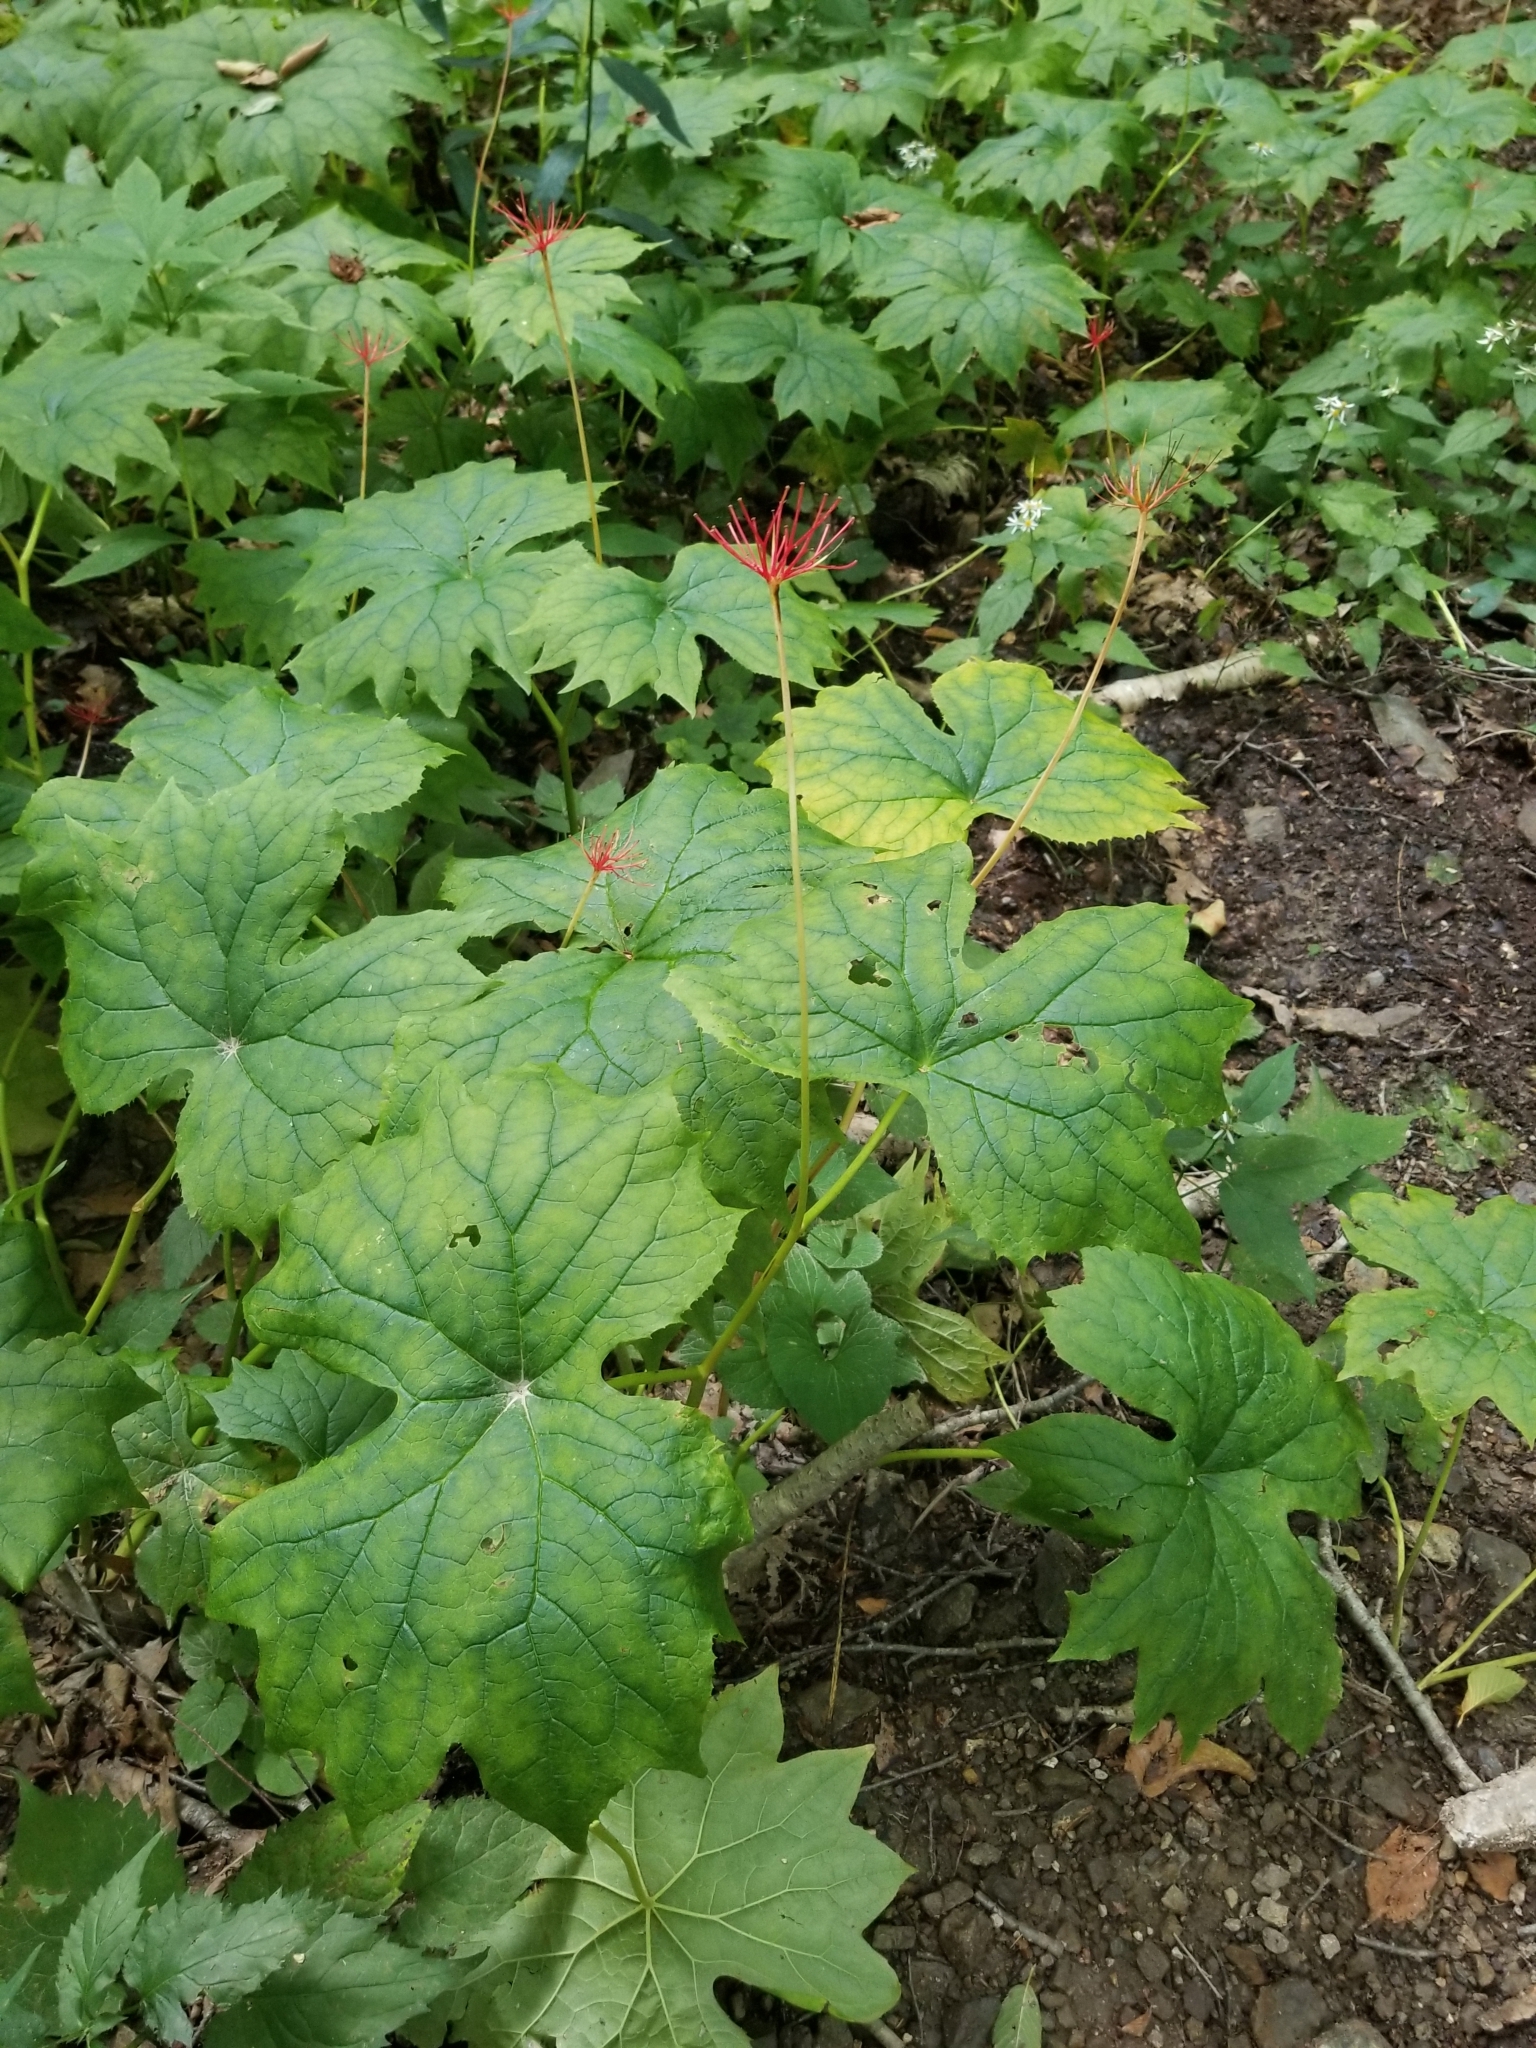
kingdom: Plantae
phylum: Tracheophyta
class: Magnoliopsida
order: Ranunculales
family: Berberidaceae
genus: Diphylleia
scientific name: Diphylleia cymosa
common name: Umbrella-leaf
